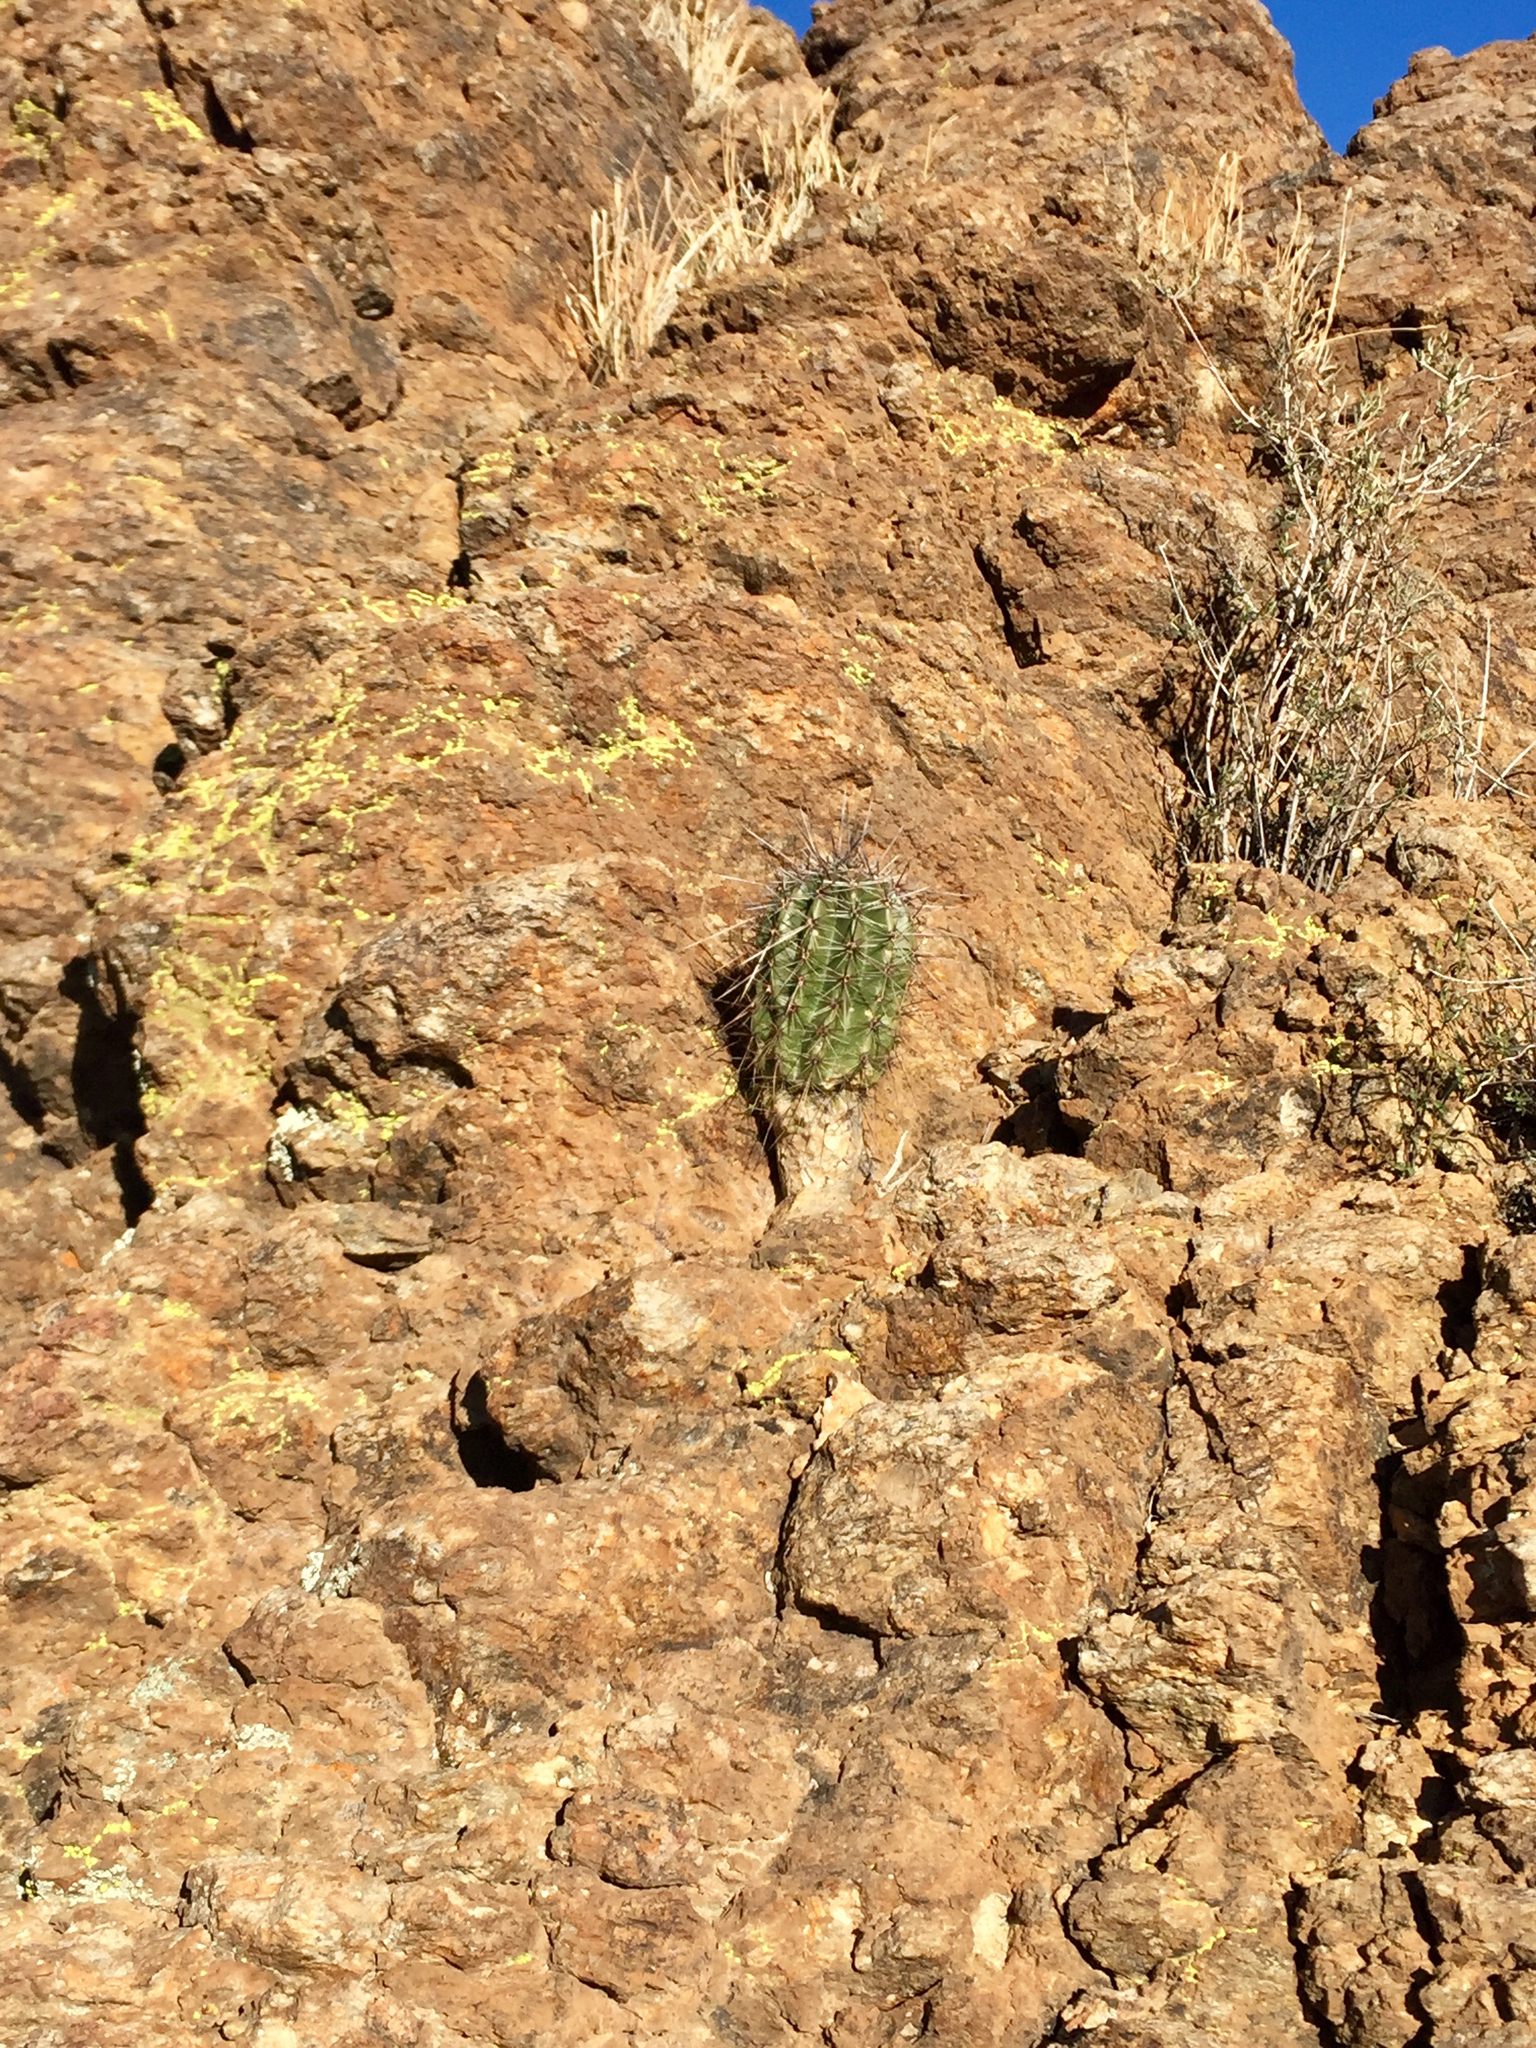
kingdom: Plantae
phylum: Tracheophyta
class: Magnoliopsida
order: Caryophyllales
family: Cactaceae
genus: Carnegiea
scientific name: Carnegiea gigantea
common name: Saguaro
